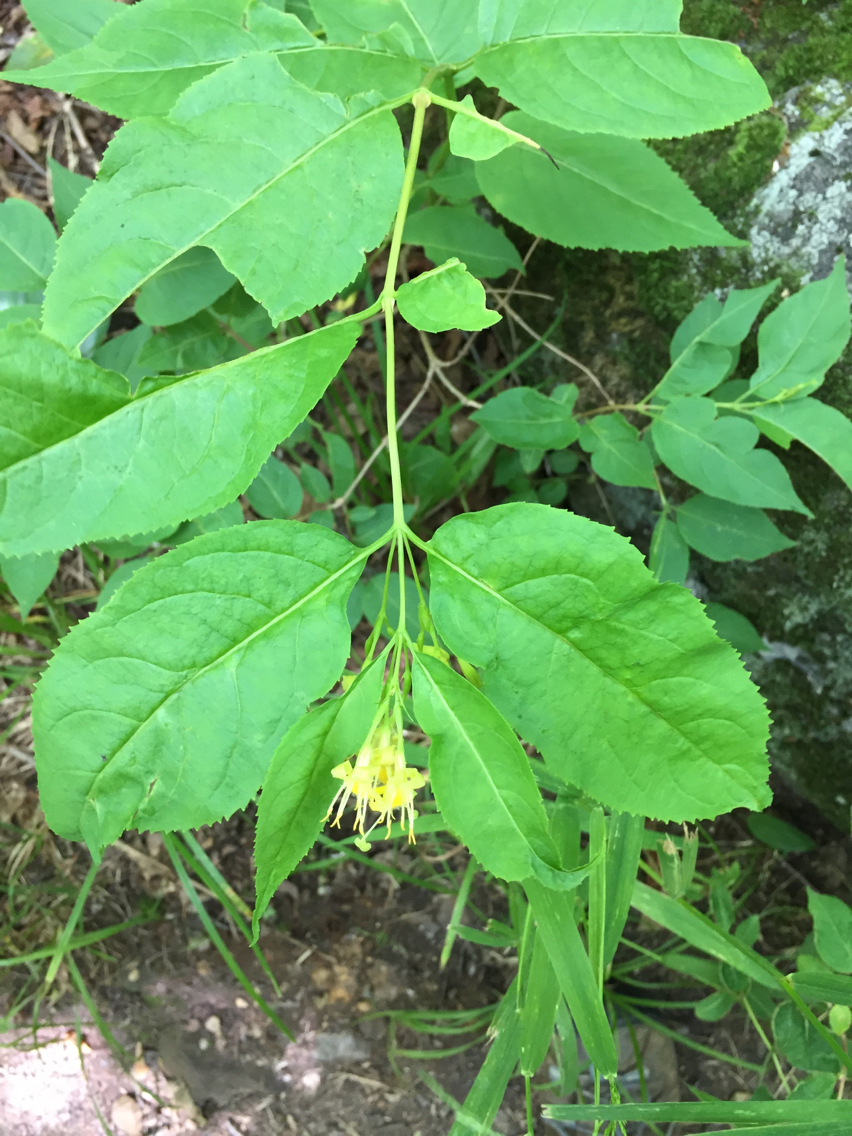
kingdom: Plantae
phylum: Tracheophyta
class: Magnoliopsida
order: Dipsacales
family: Caprifoliaceae
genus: Diervilla
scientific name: Diervilla lonicera
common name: Bush-honeysuckle
